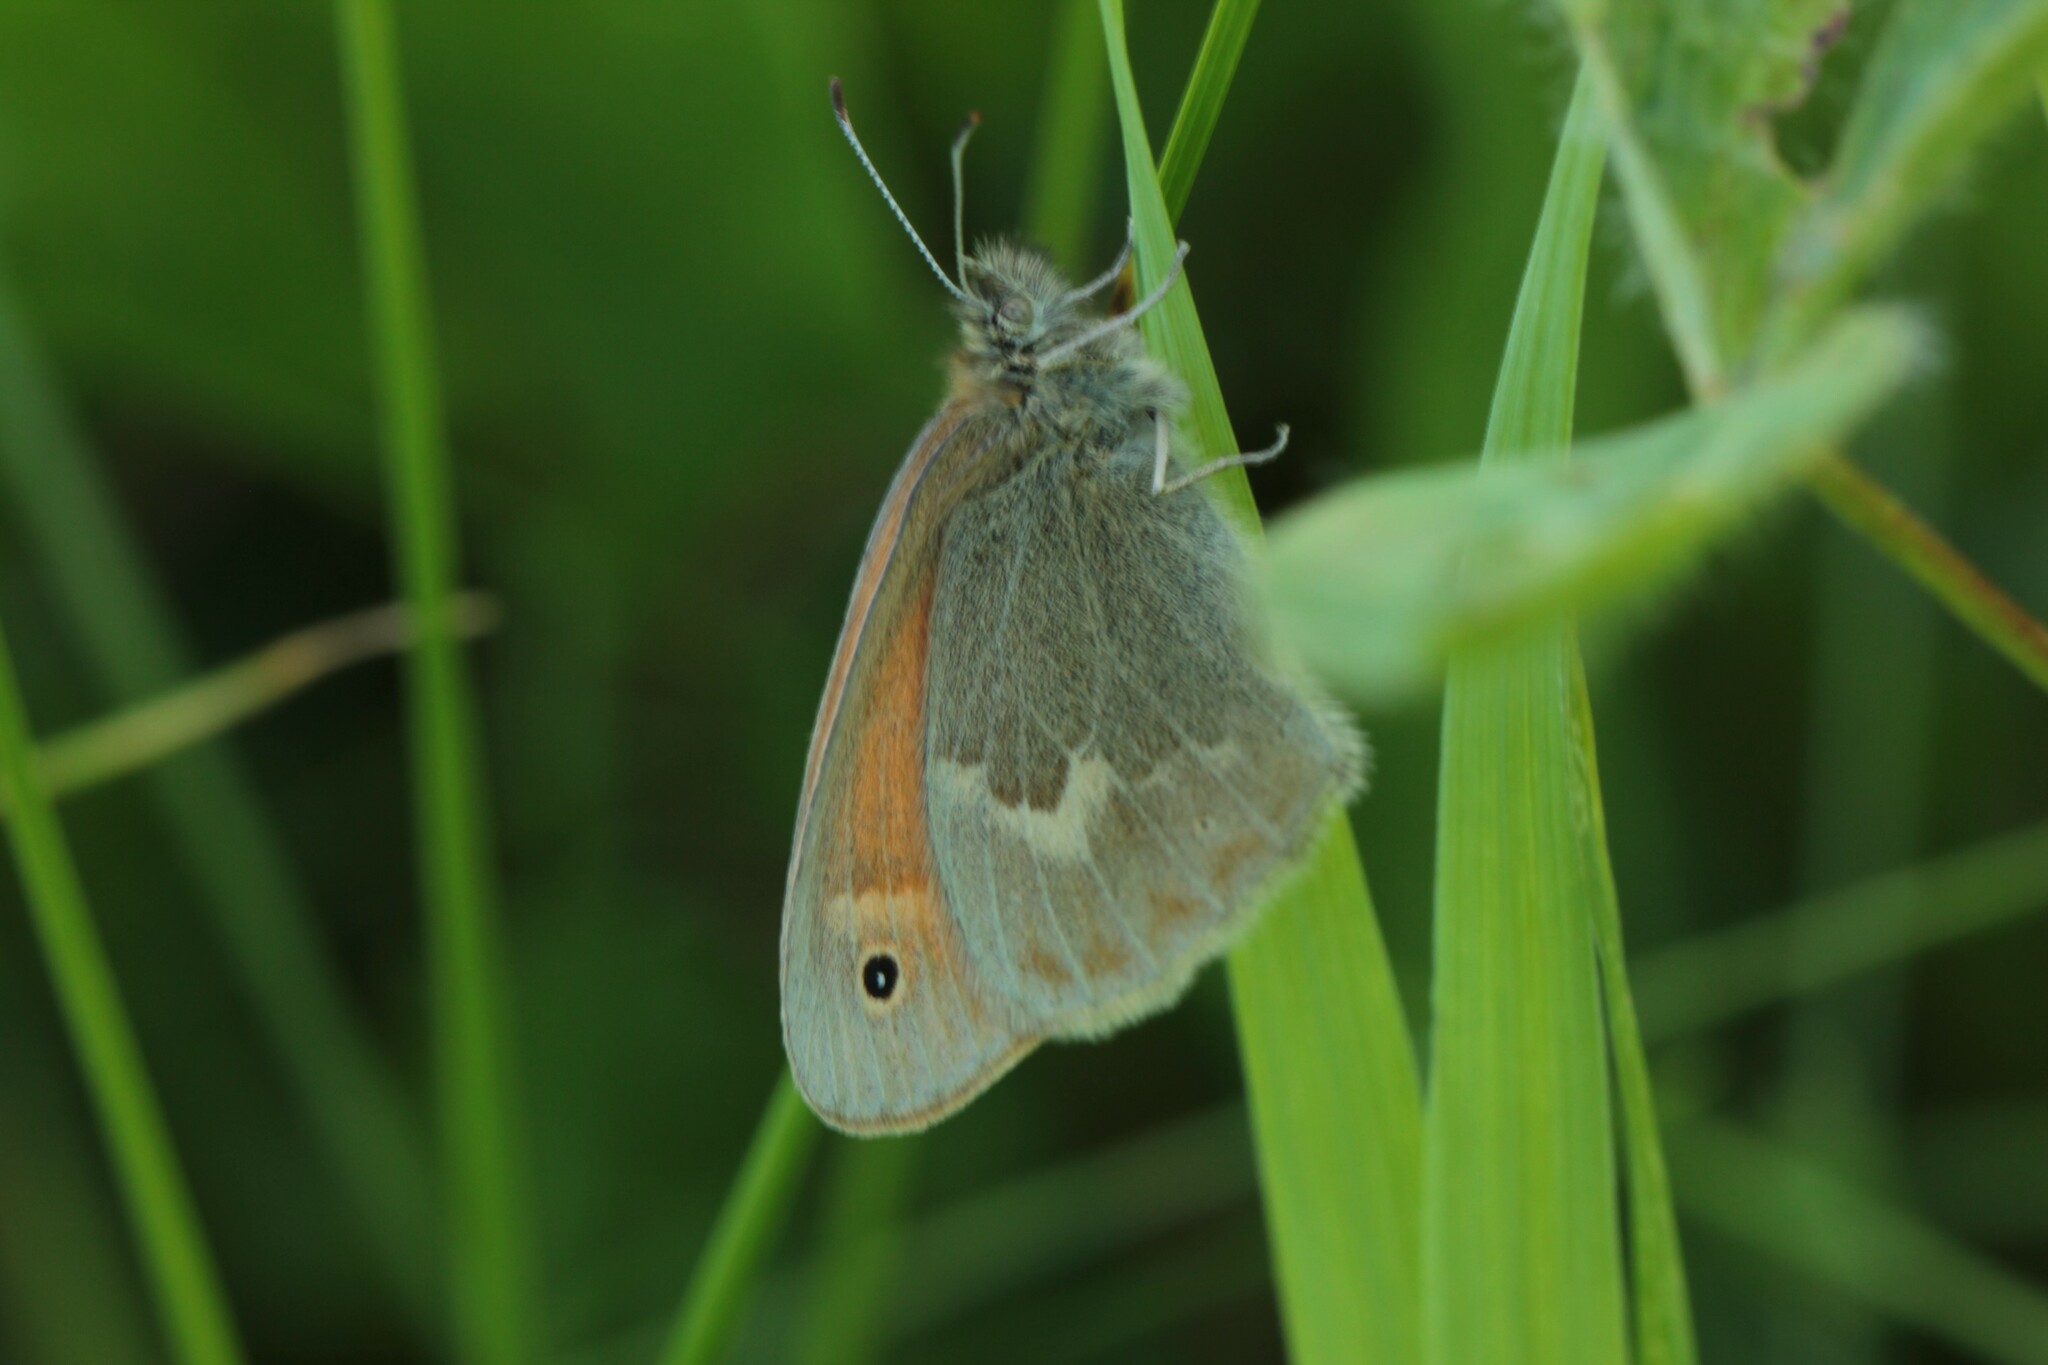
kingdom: Animalia
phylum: Arthropoda
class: Insecta
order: Lepidoptera
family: Nymphalidae
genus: Coenonympha
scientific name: Coenonympha california
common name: Common ringlet
